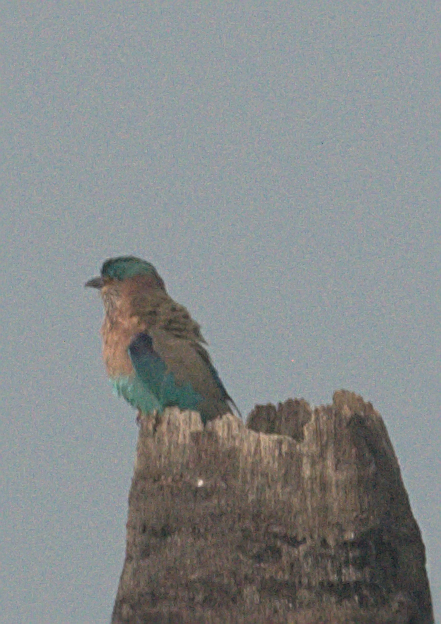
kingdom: Animalia
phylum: Chordata
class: Aves
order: Coraciiformes
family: Coraciidae
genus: Coracias
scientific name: Coracias benghalensis
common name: Indian roller
